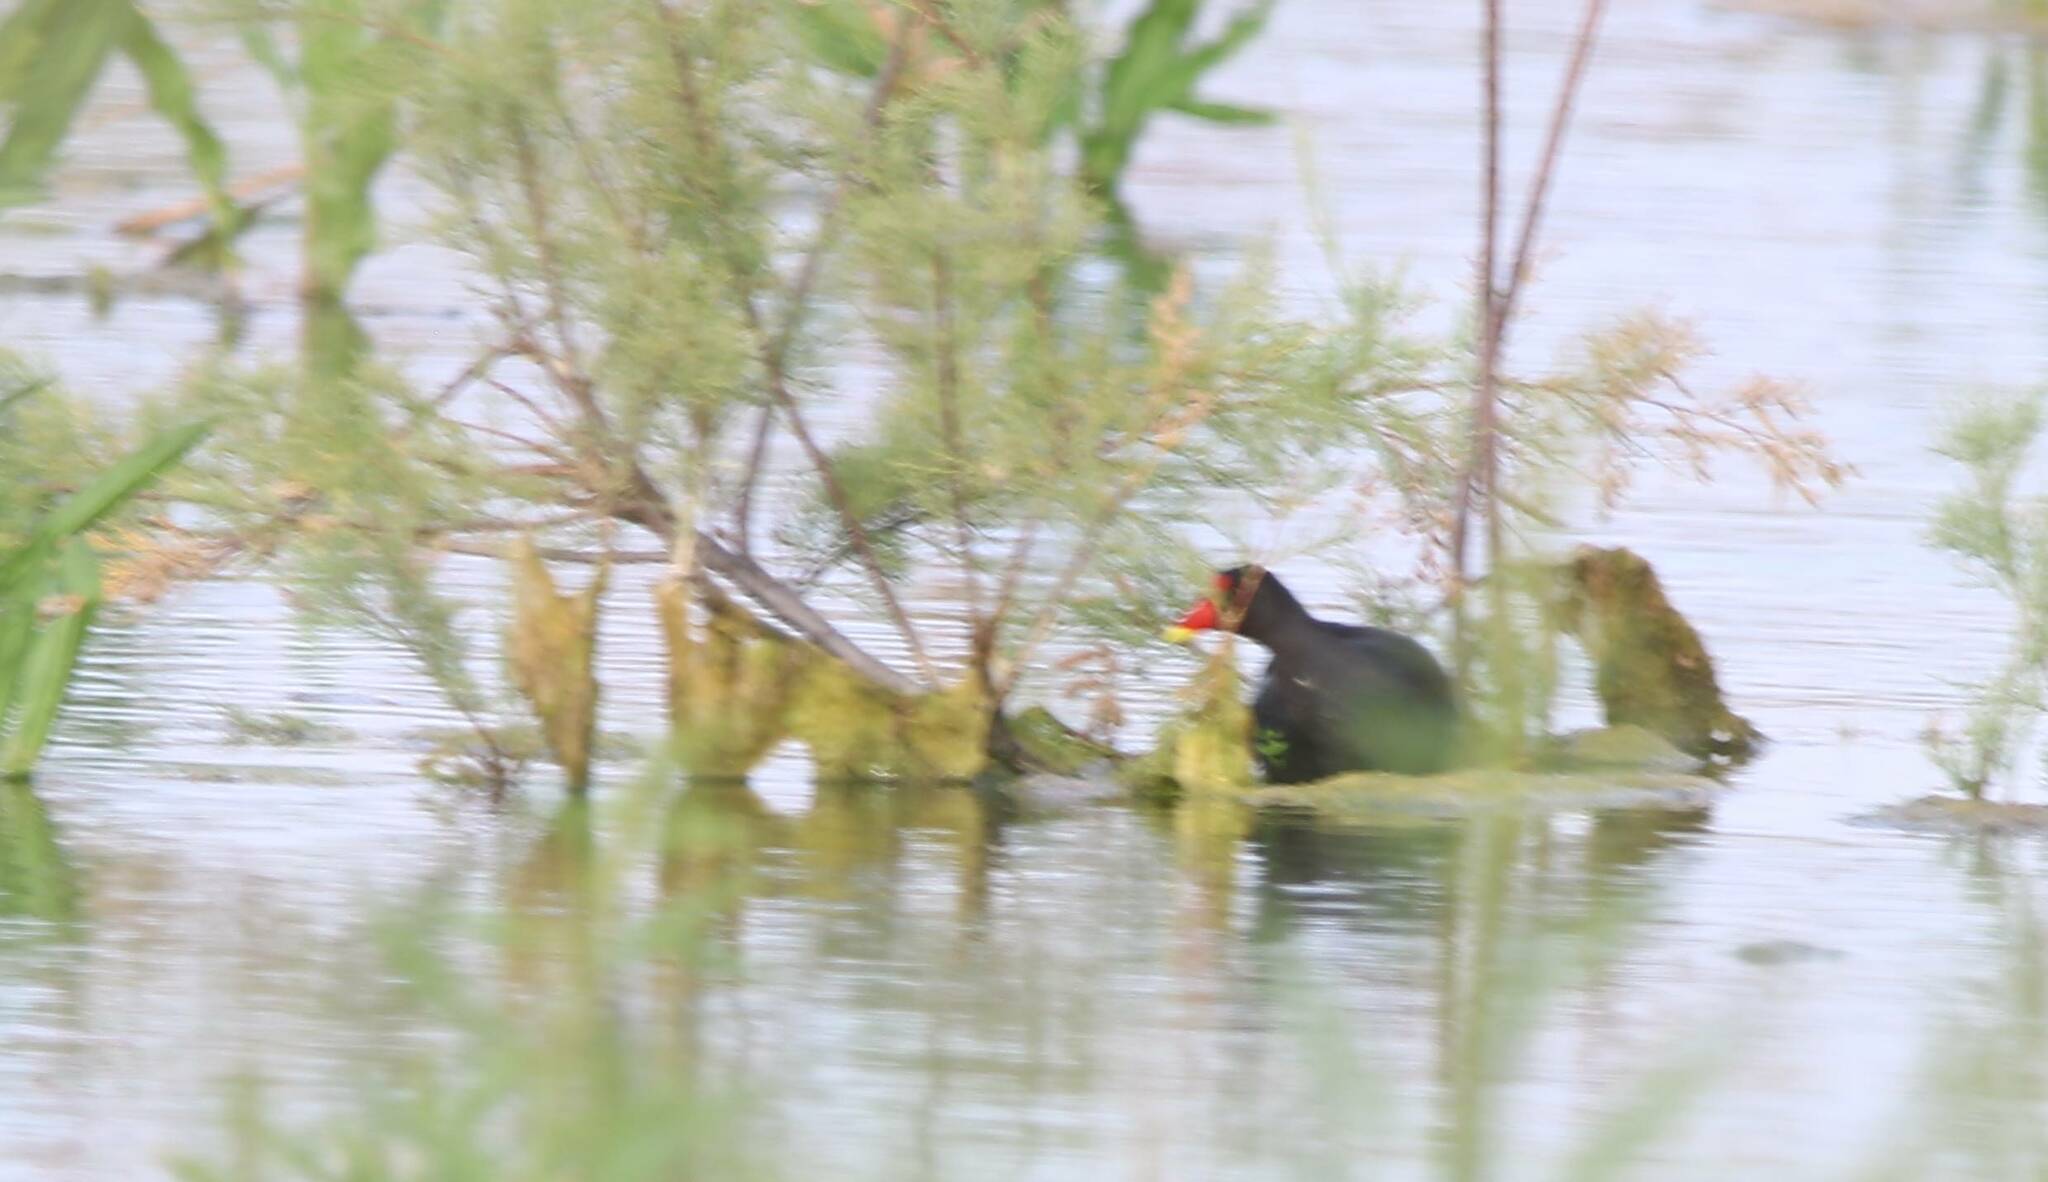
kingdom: Animalia
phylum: Chordata
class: Aves
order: Gruiformes
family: Rallidae
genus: Gallinula
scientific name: Gallinula chloropus
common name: Common moorhen
